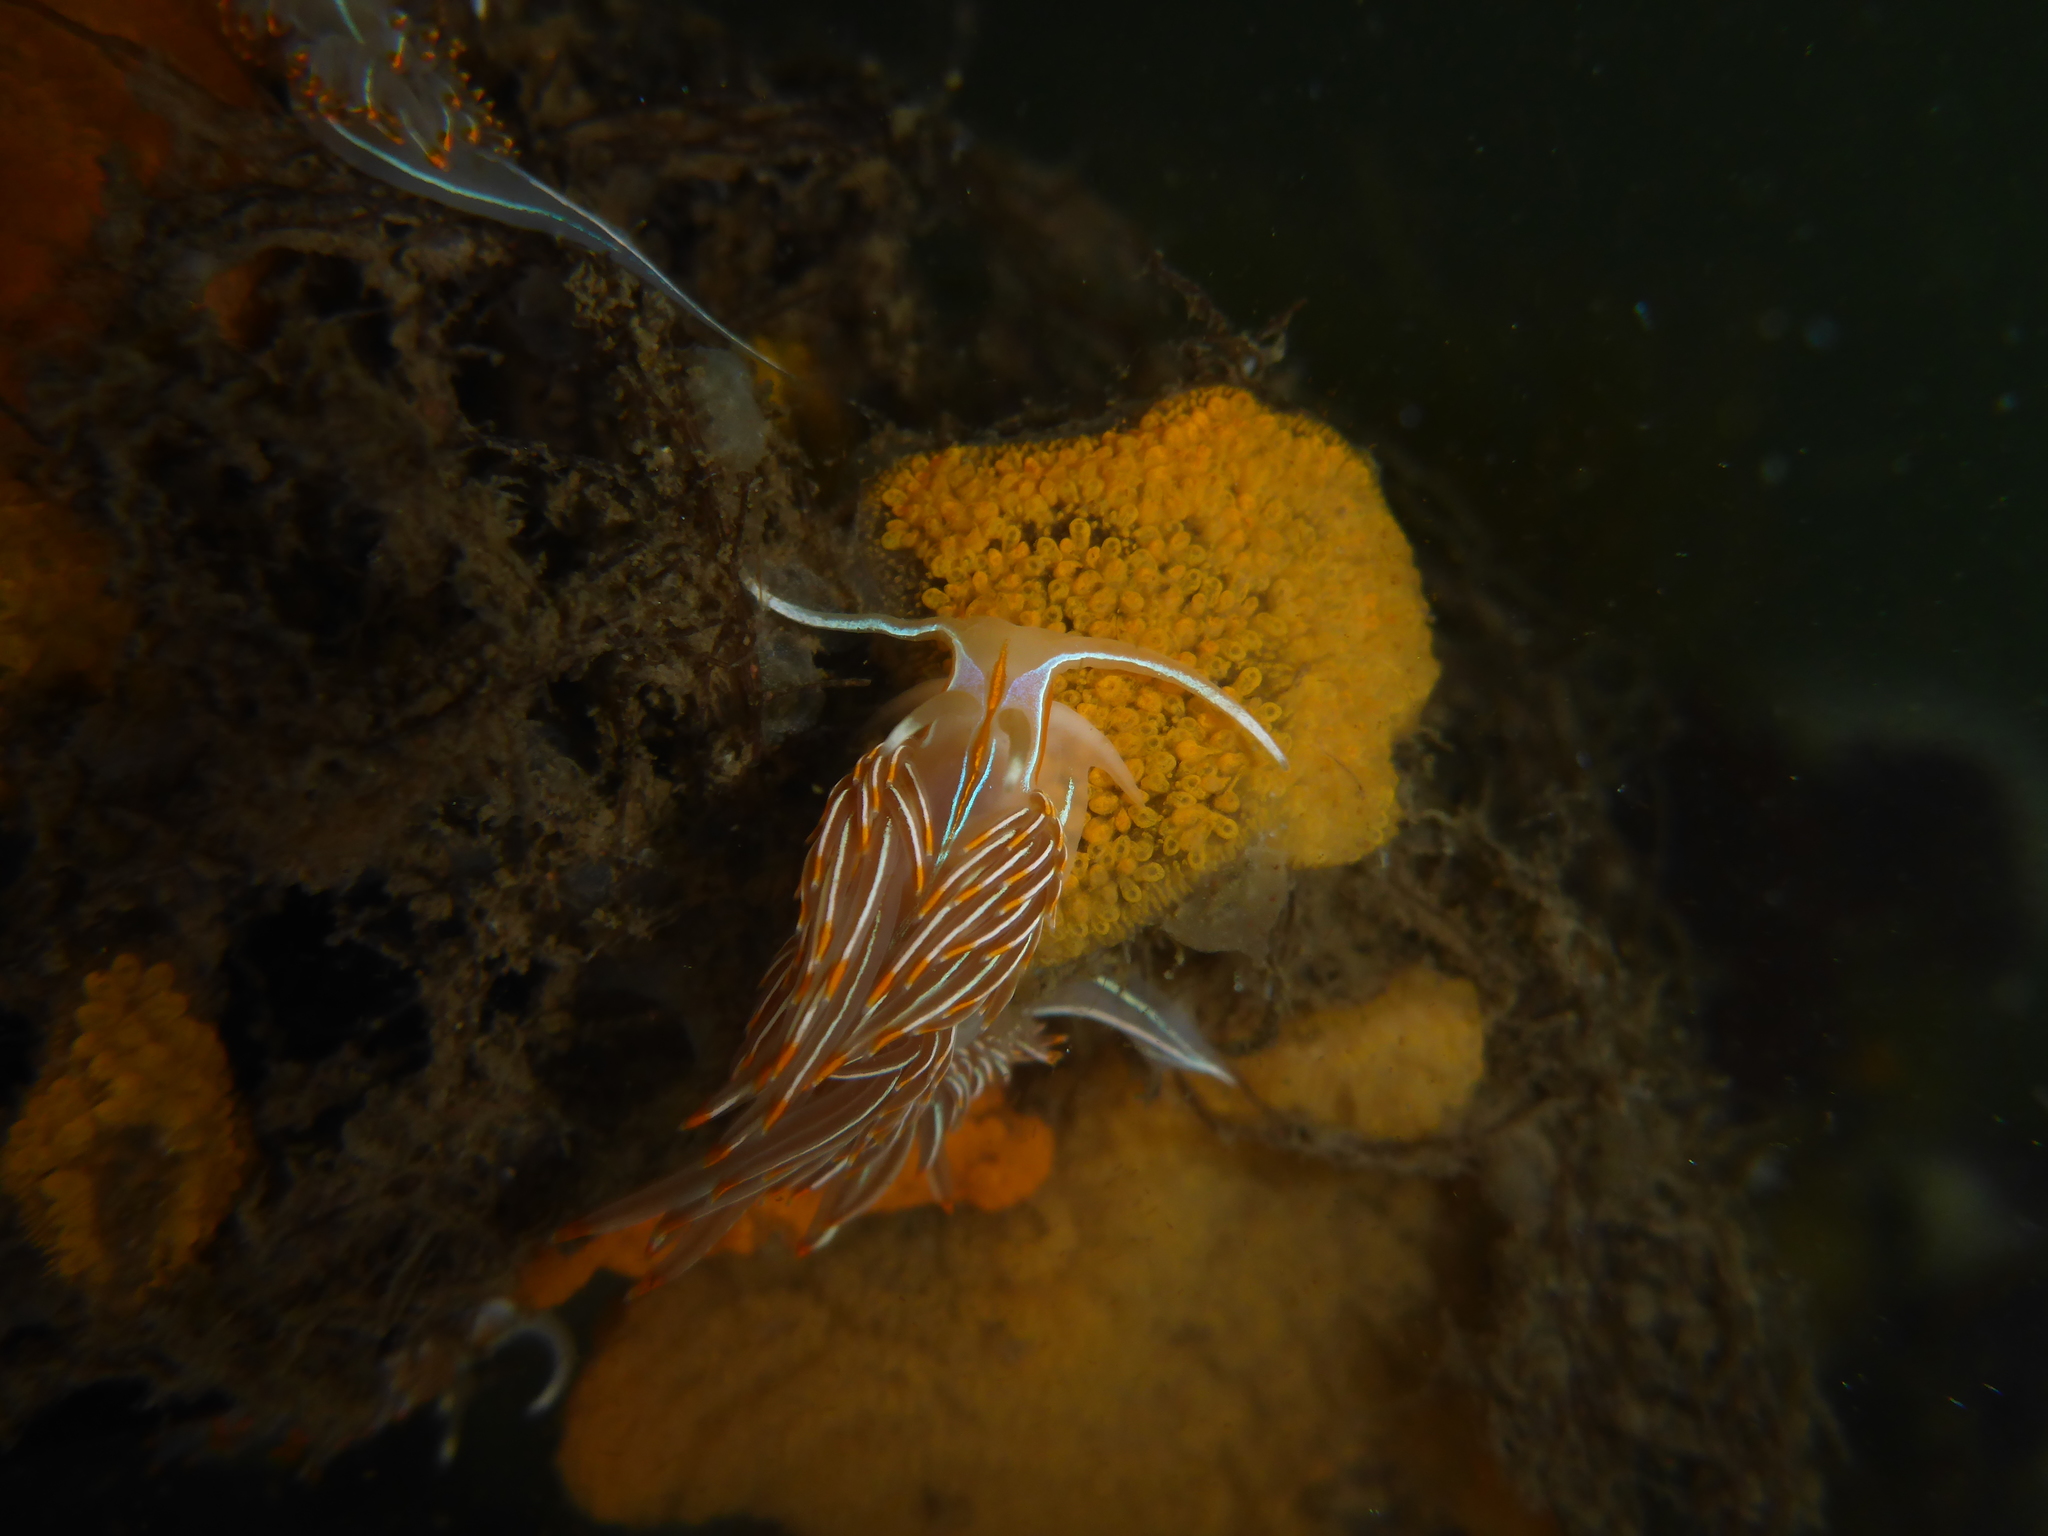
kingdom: Animalia
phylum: Mollusca
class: Gastropoda
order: Nudibranchia
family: Myrrhinidae
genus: Hermissenda
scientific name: Hermissenda crassicornis
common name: Hermissenda
